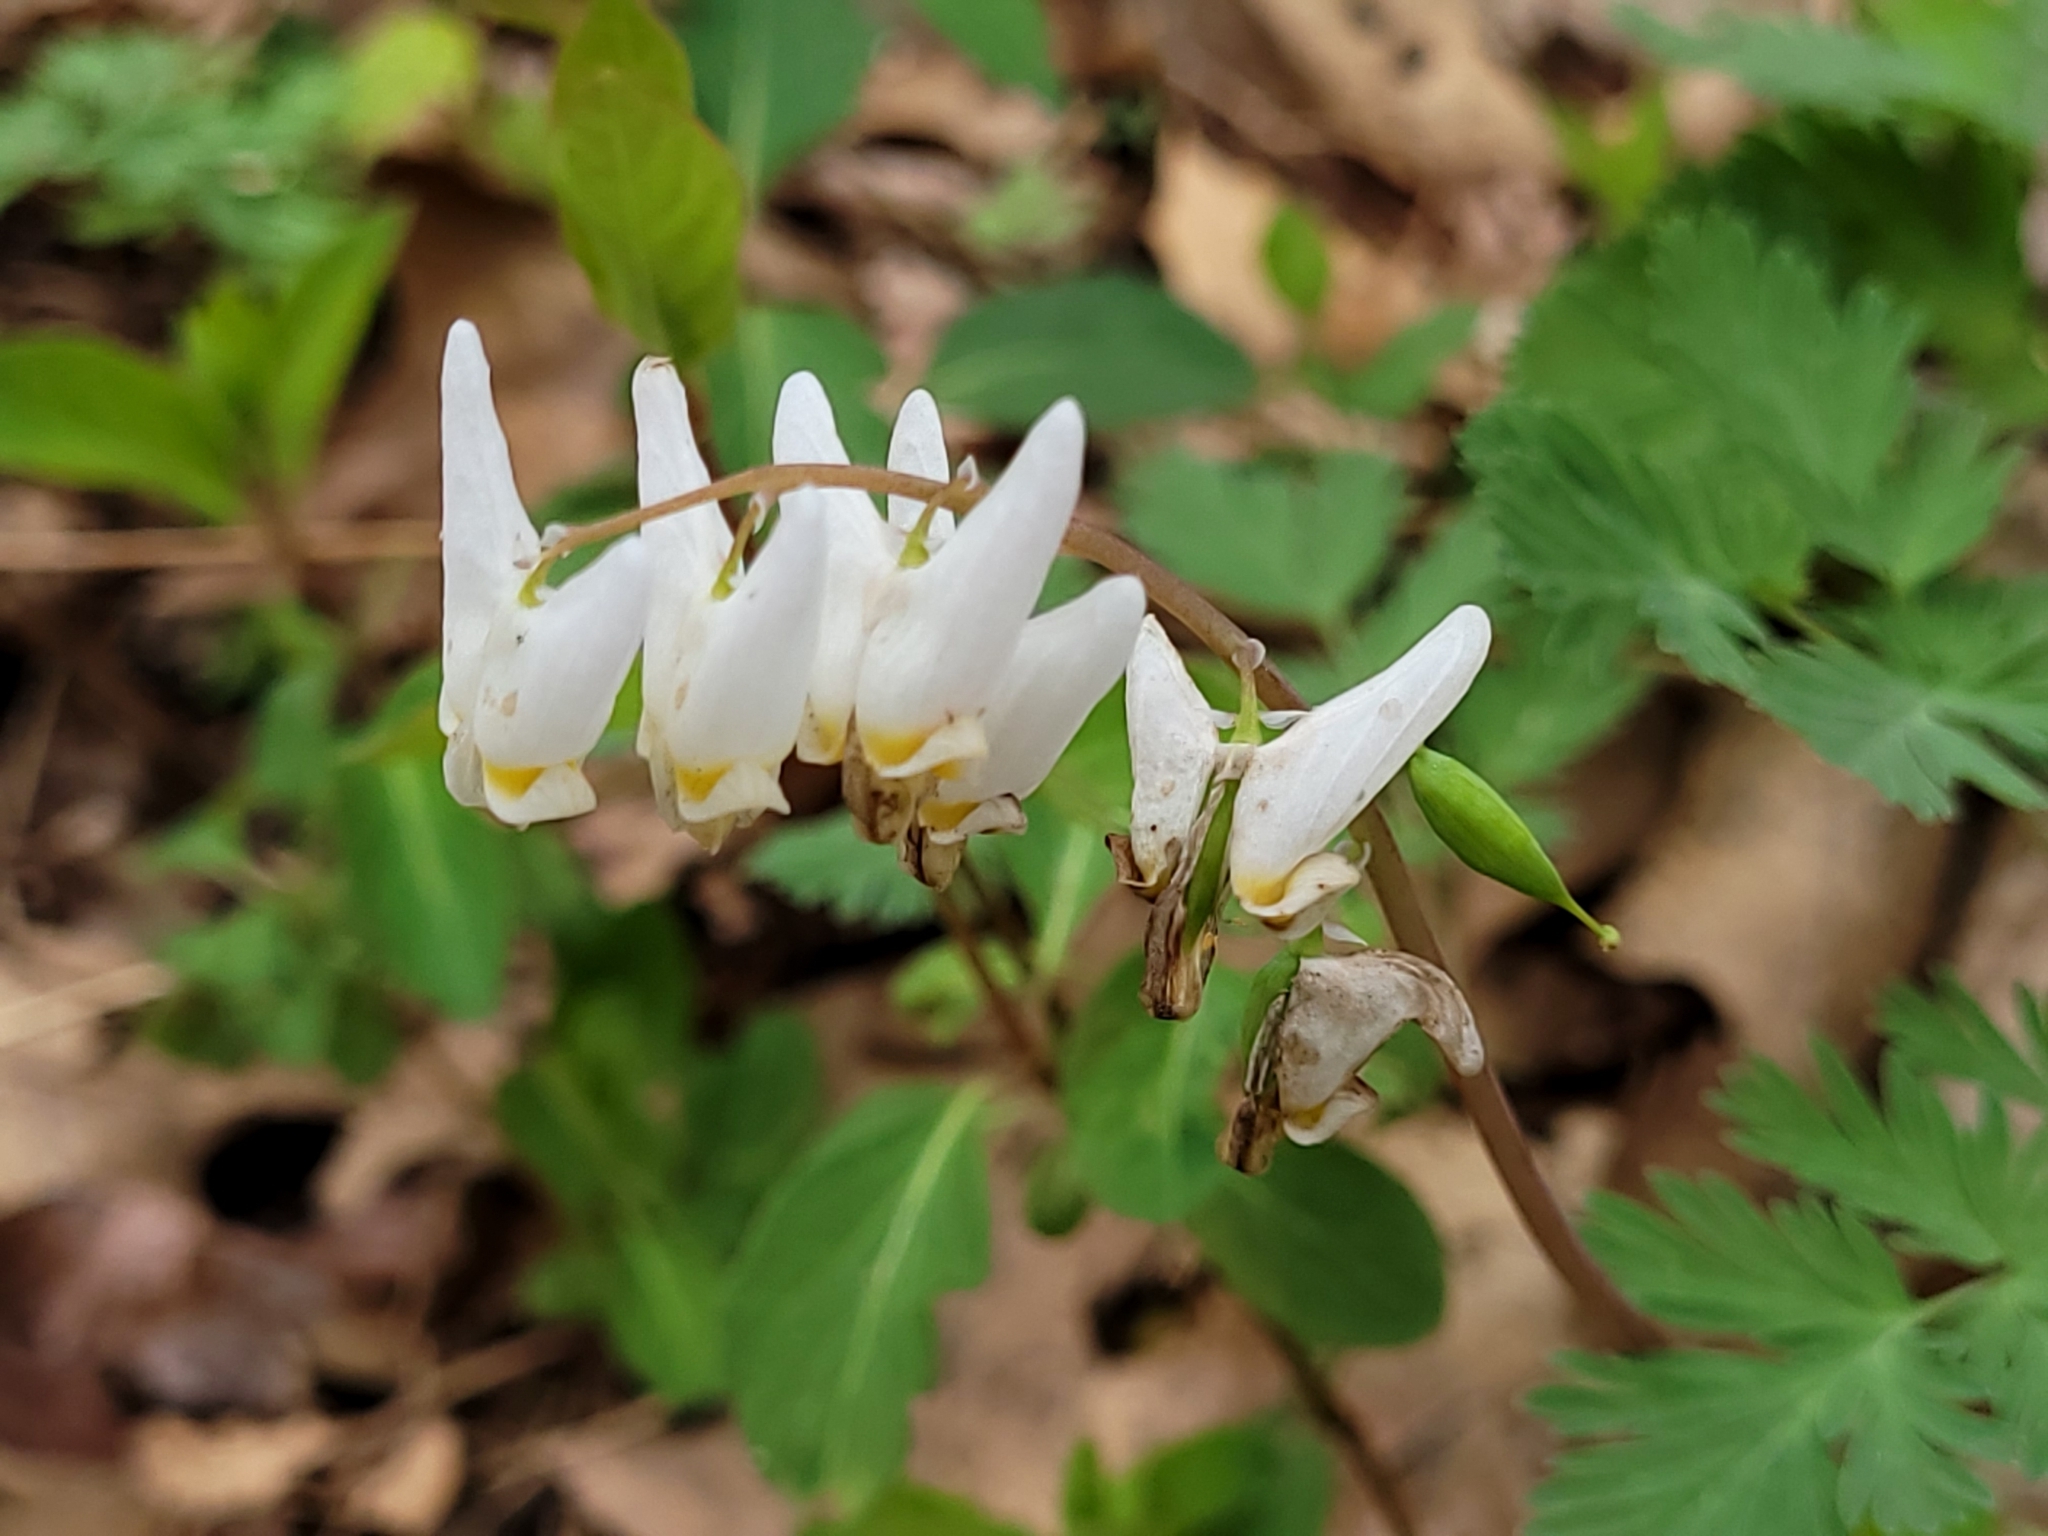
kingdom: Plantae
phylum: Tracheophyta
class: Magnoliopsida
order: Ranunculales
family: Papaveraceae
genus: Dicentra
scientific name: Dicentra cucullaria
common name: Dutchman's breeches
